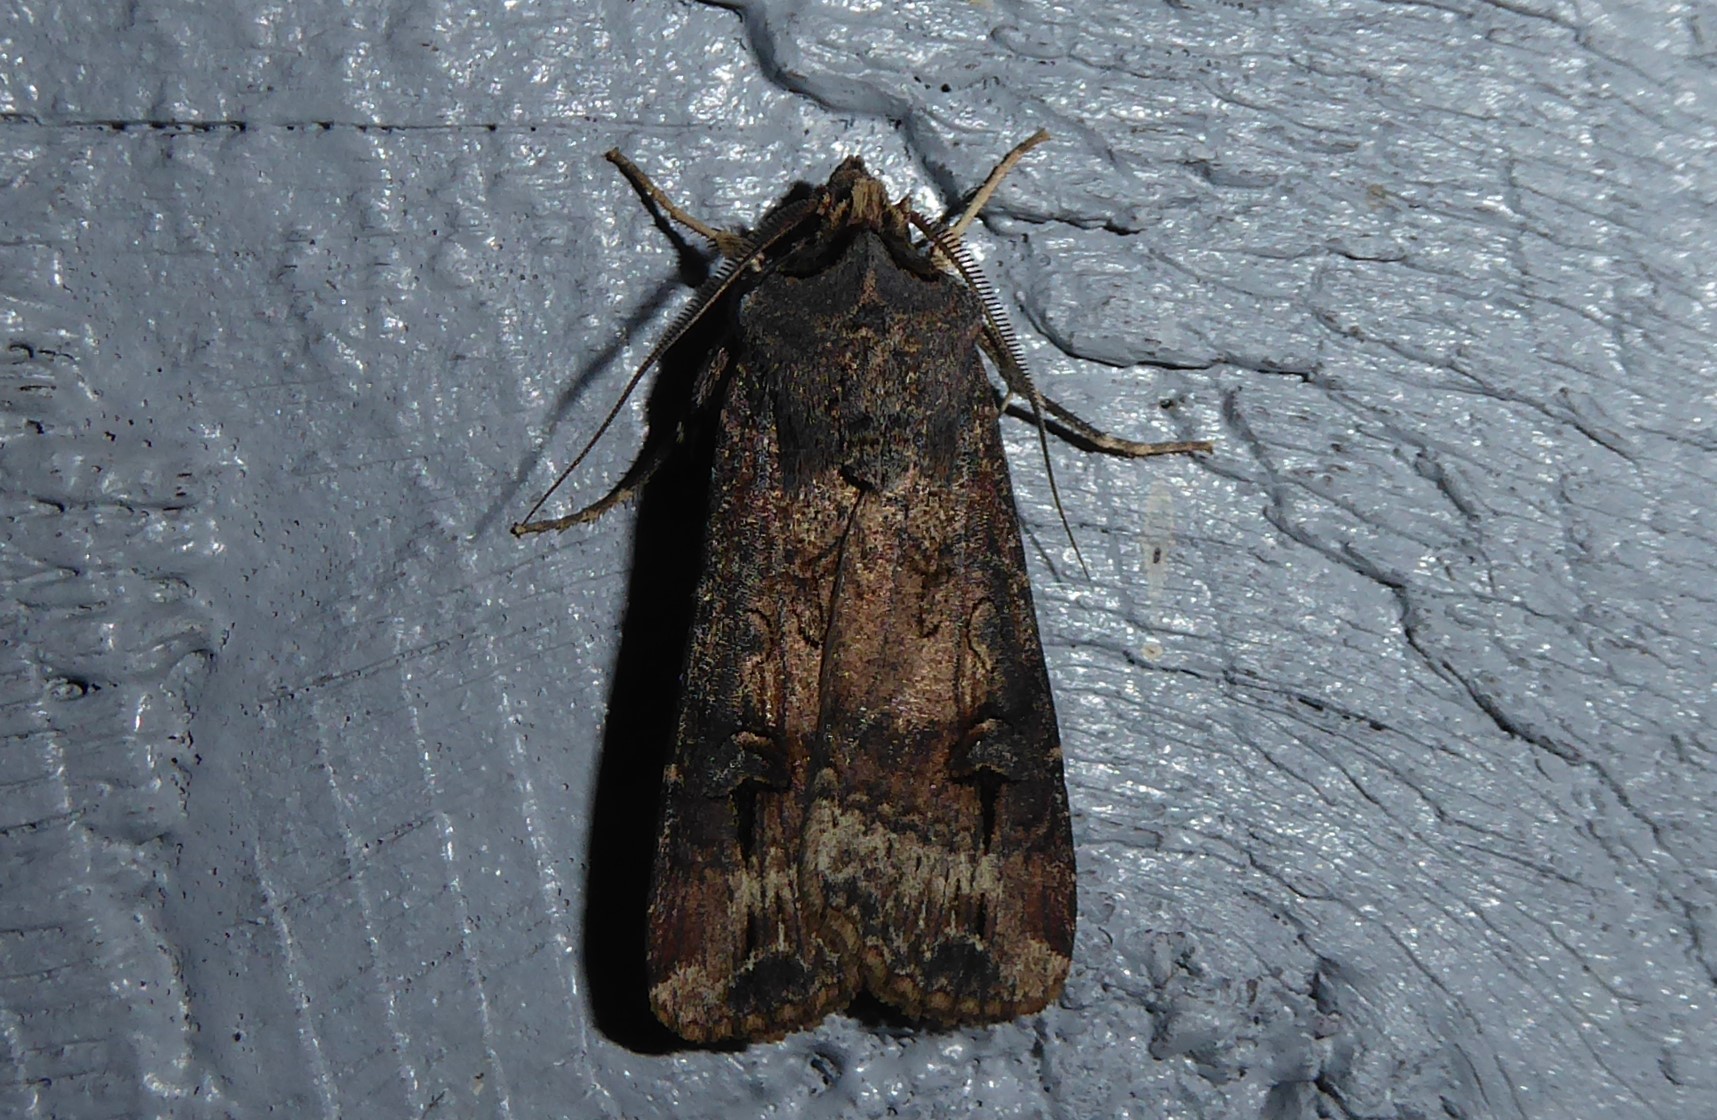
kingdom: Animalia
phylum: Arthropoda
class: Insecta
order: Lepidoptera
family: Noctuidae
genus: Agrotis
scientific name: Agrotis ipsilon
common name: Dark sword-grass
